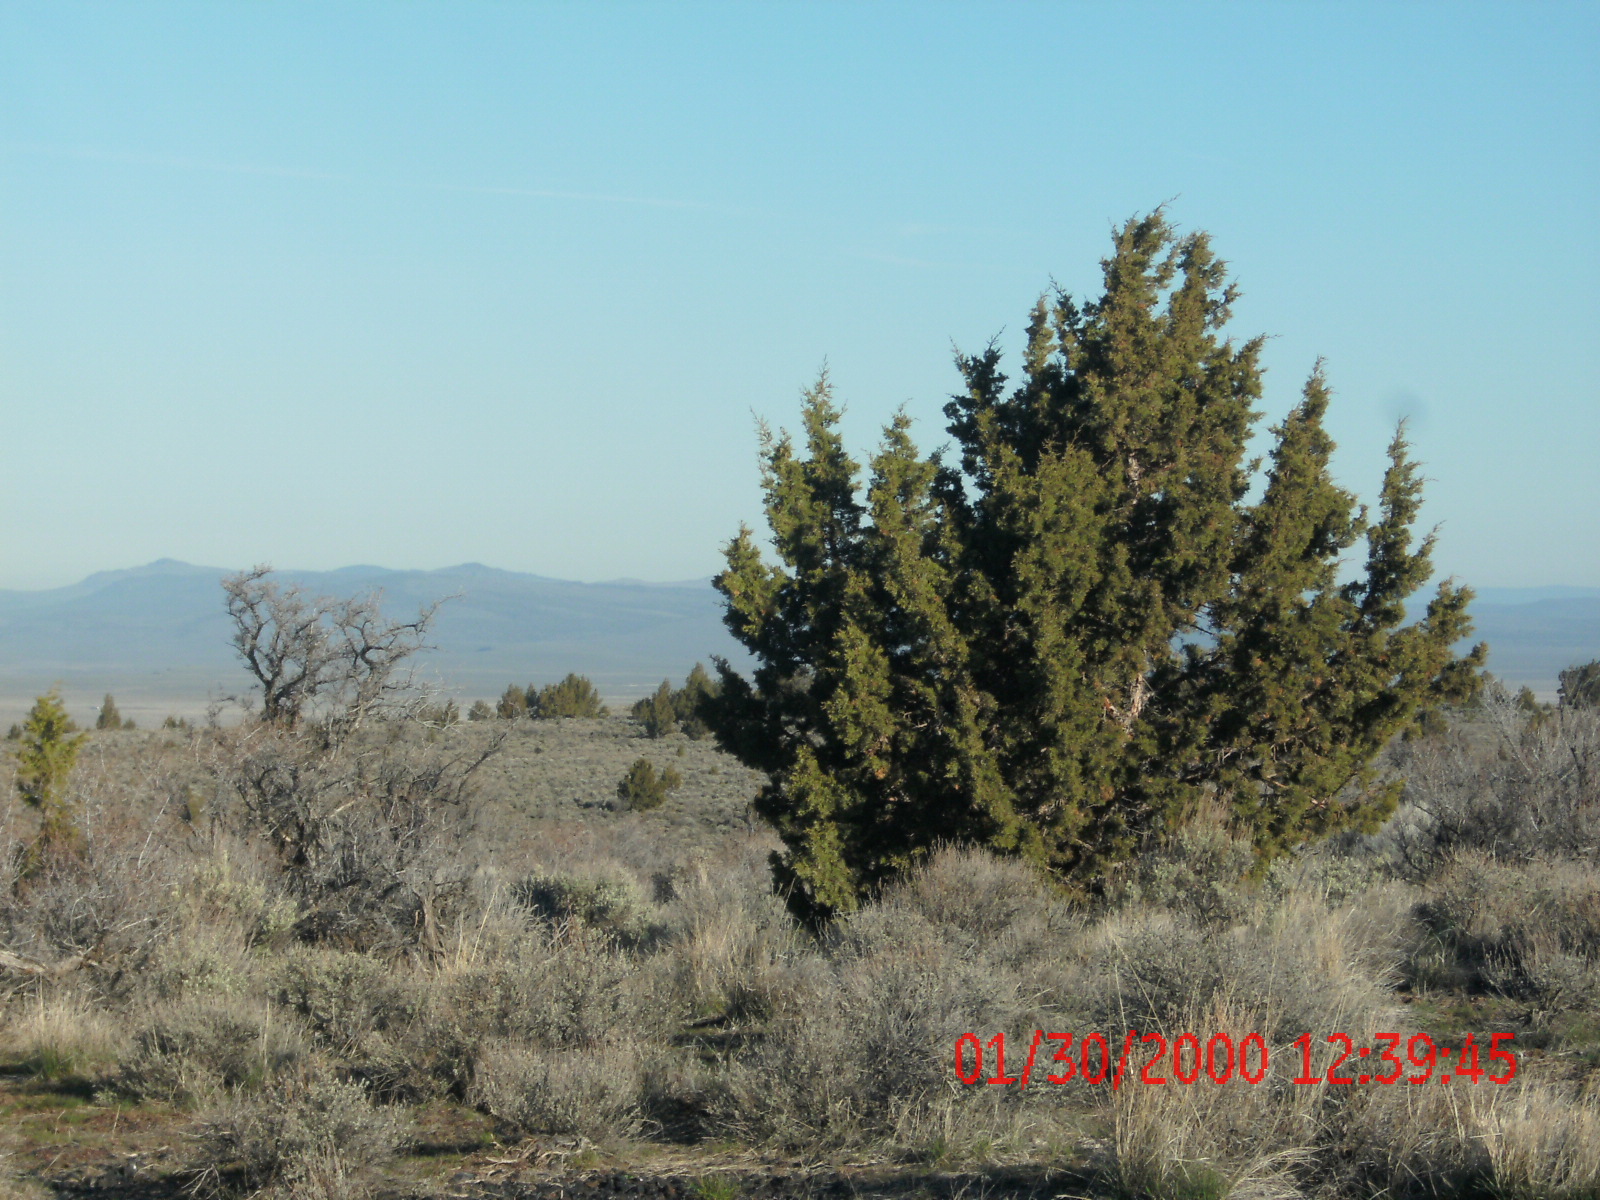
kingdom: Plantae
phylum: Tracheophyta
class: Pinopsida
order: Pinales
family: Cupressaceae
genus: Juniperus
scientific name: Juniperus occidentalis
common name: Western juniper
